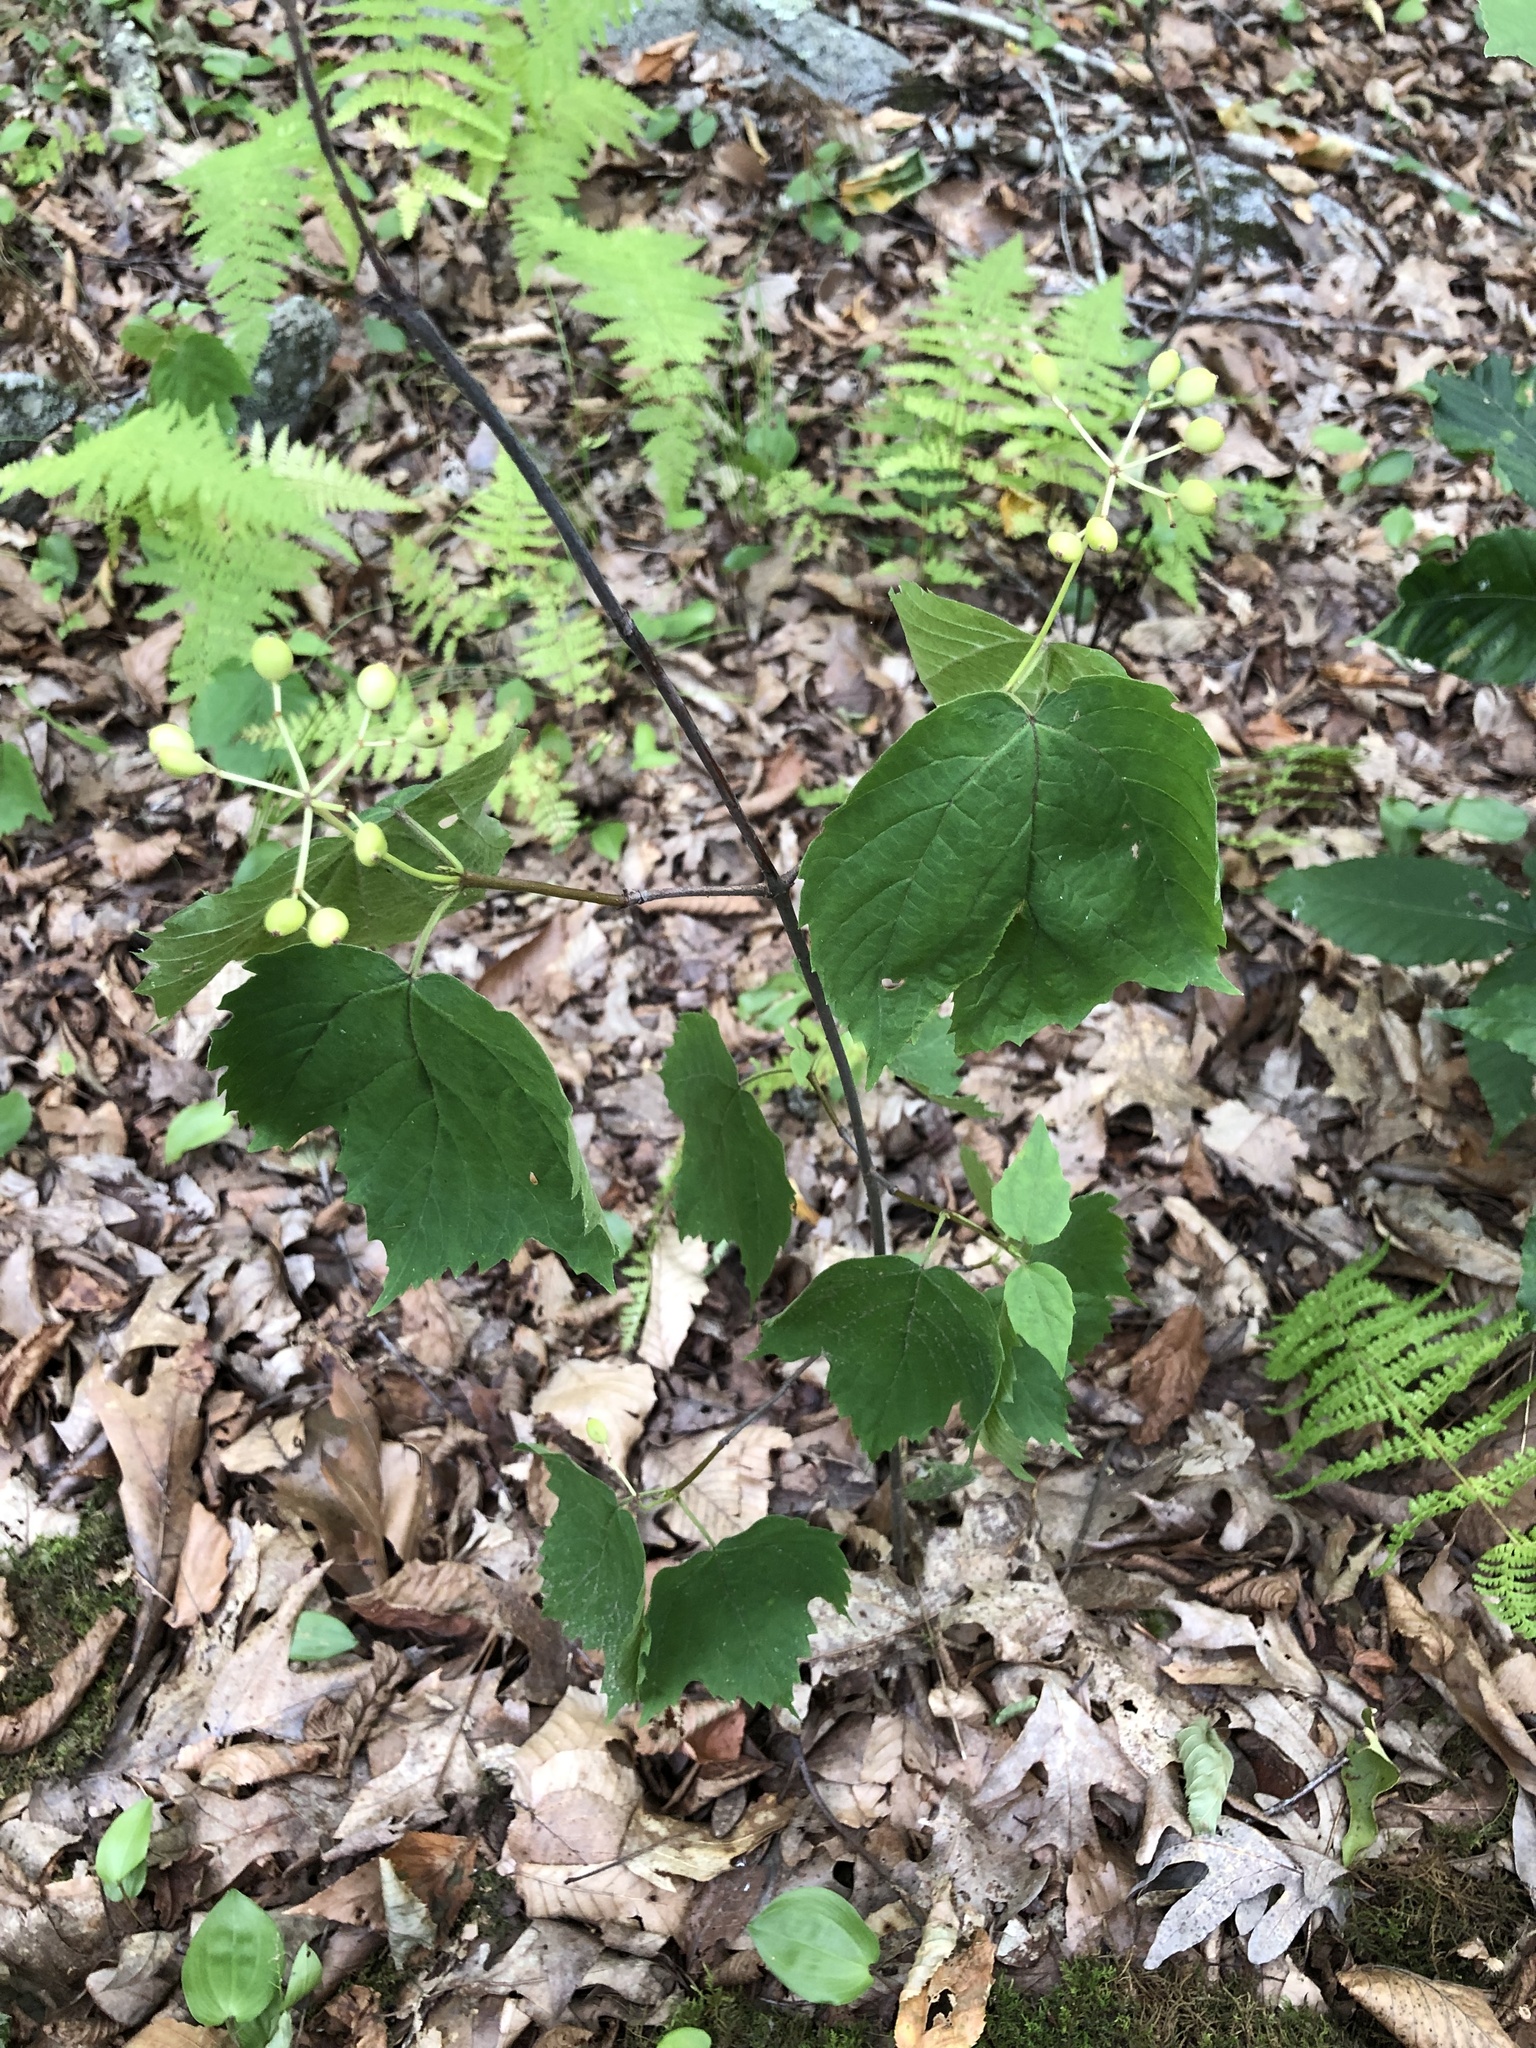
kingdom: Plantae
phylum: Tracheophyta
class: Magnoliopsida
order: Dipsacales
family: Viburnaceae
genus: Viburnum
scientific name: Viburnum acerifolium
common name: Dockmackie
